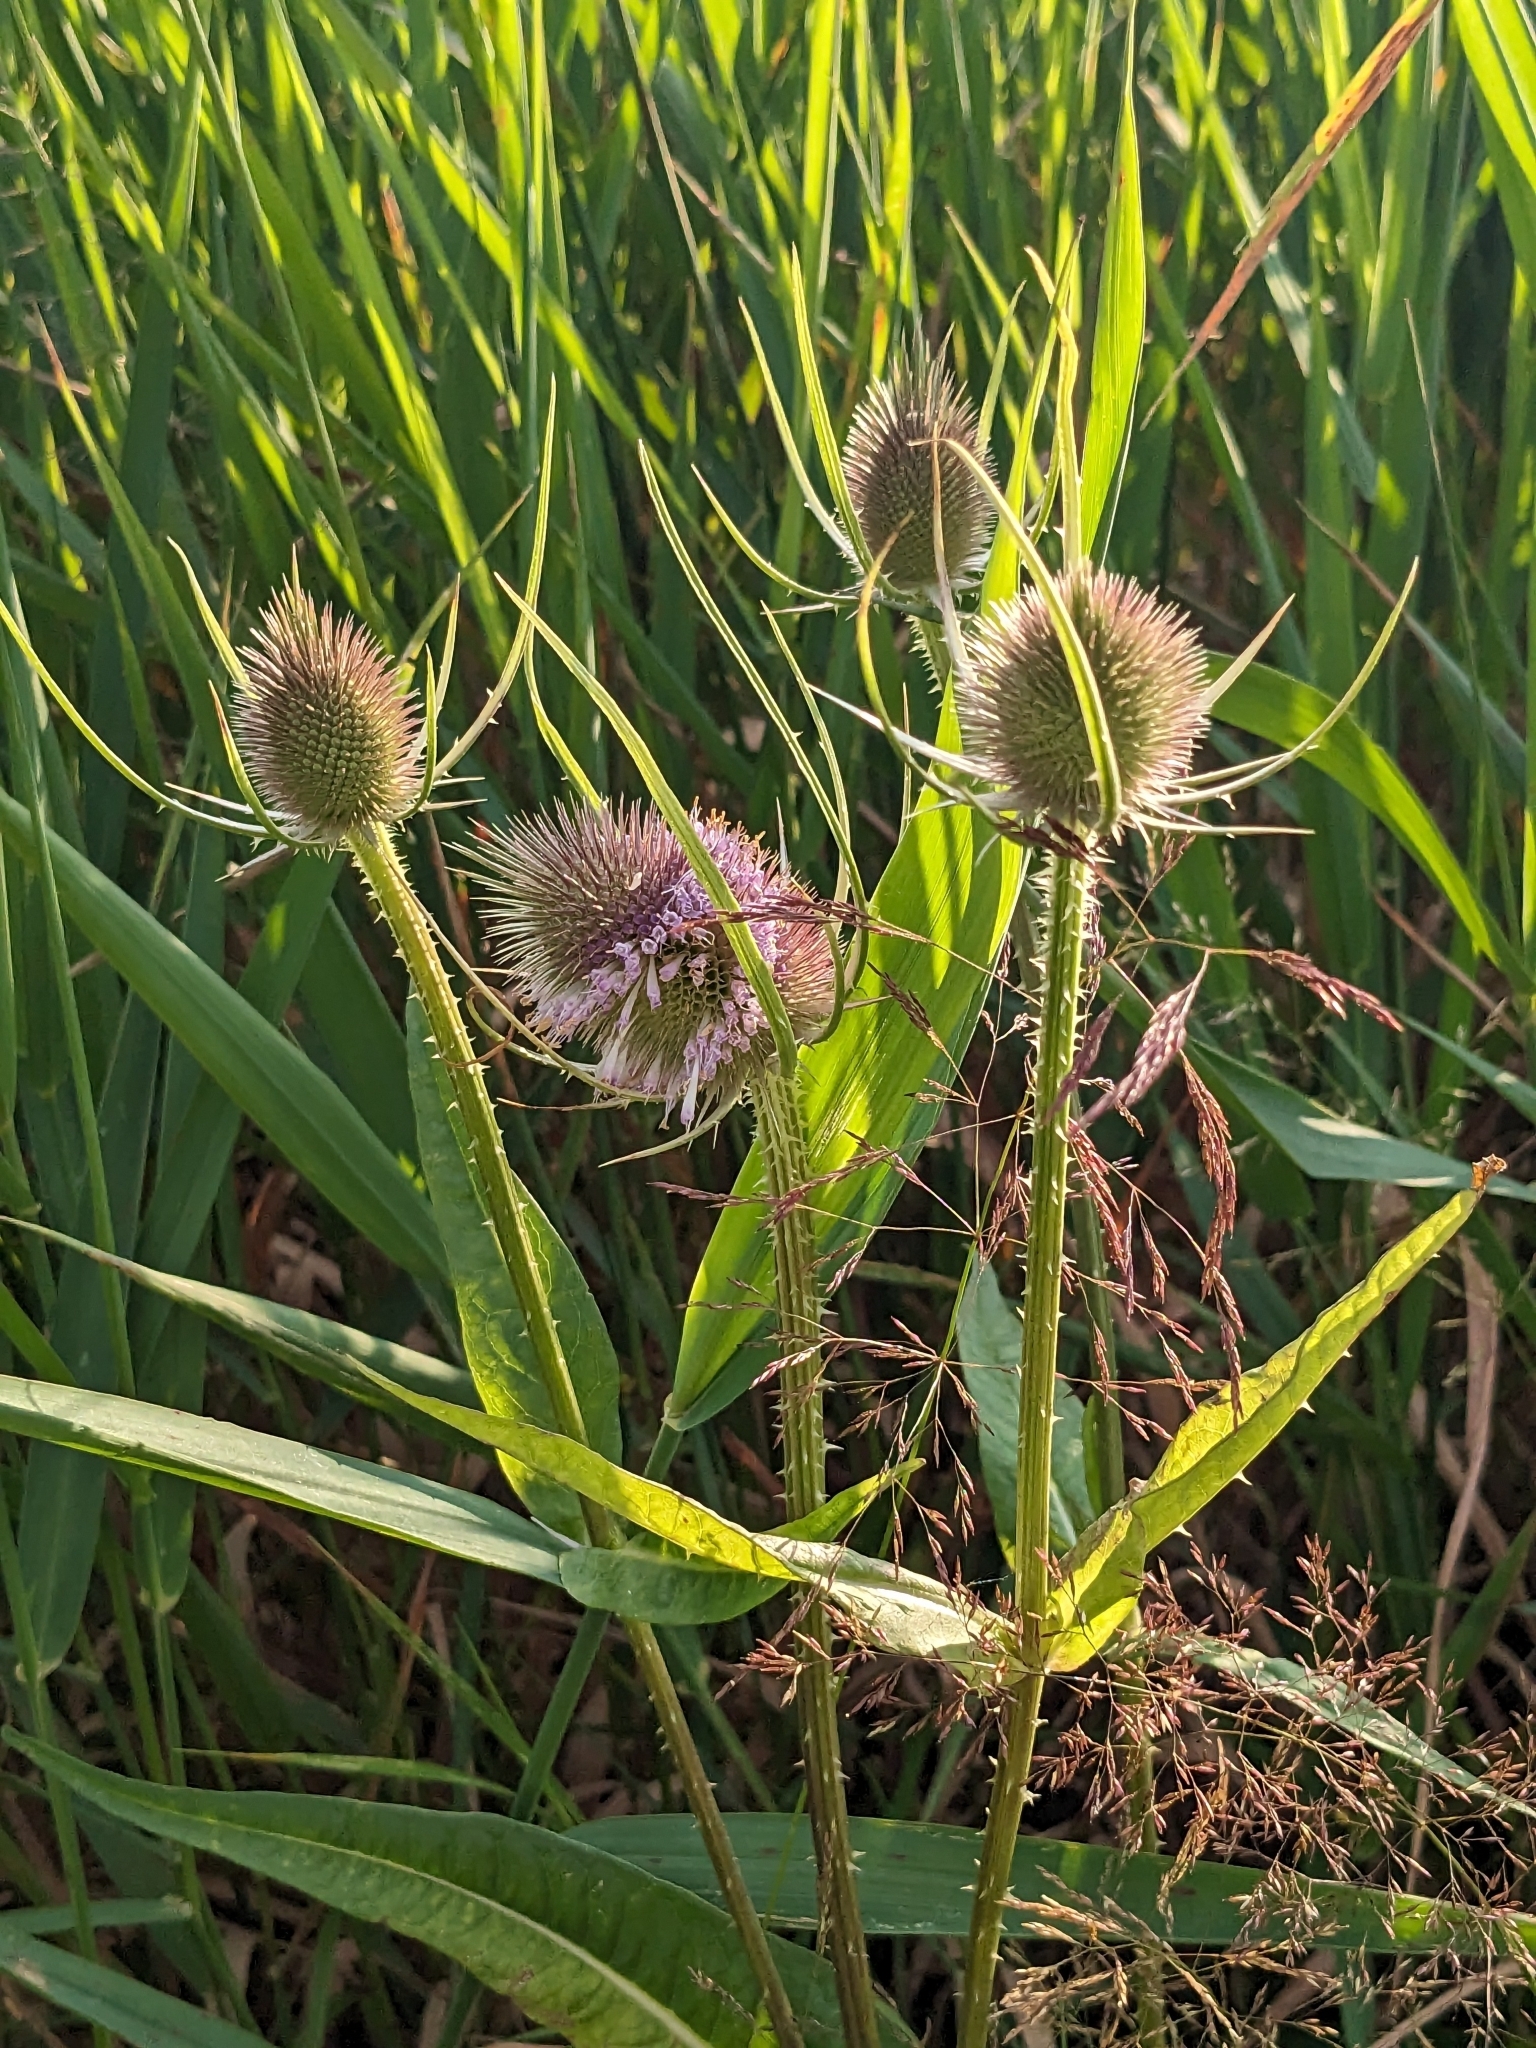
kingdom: Plantae
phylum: Tracheophyta
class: Magnoliopsida
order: Dipsacales
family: Caprifoliaceae
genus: Dipsacus
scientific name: Dipsacus fullonum
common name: Teasel
